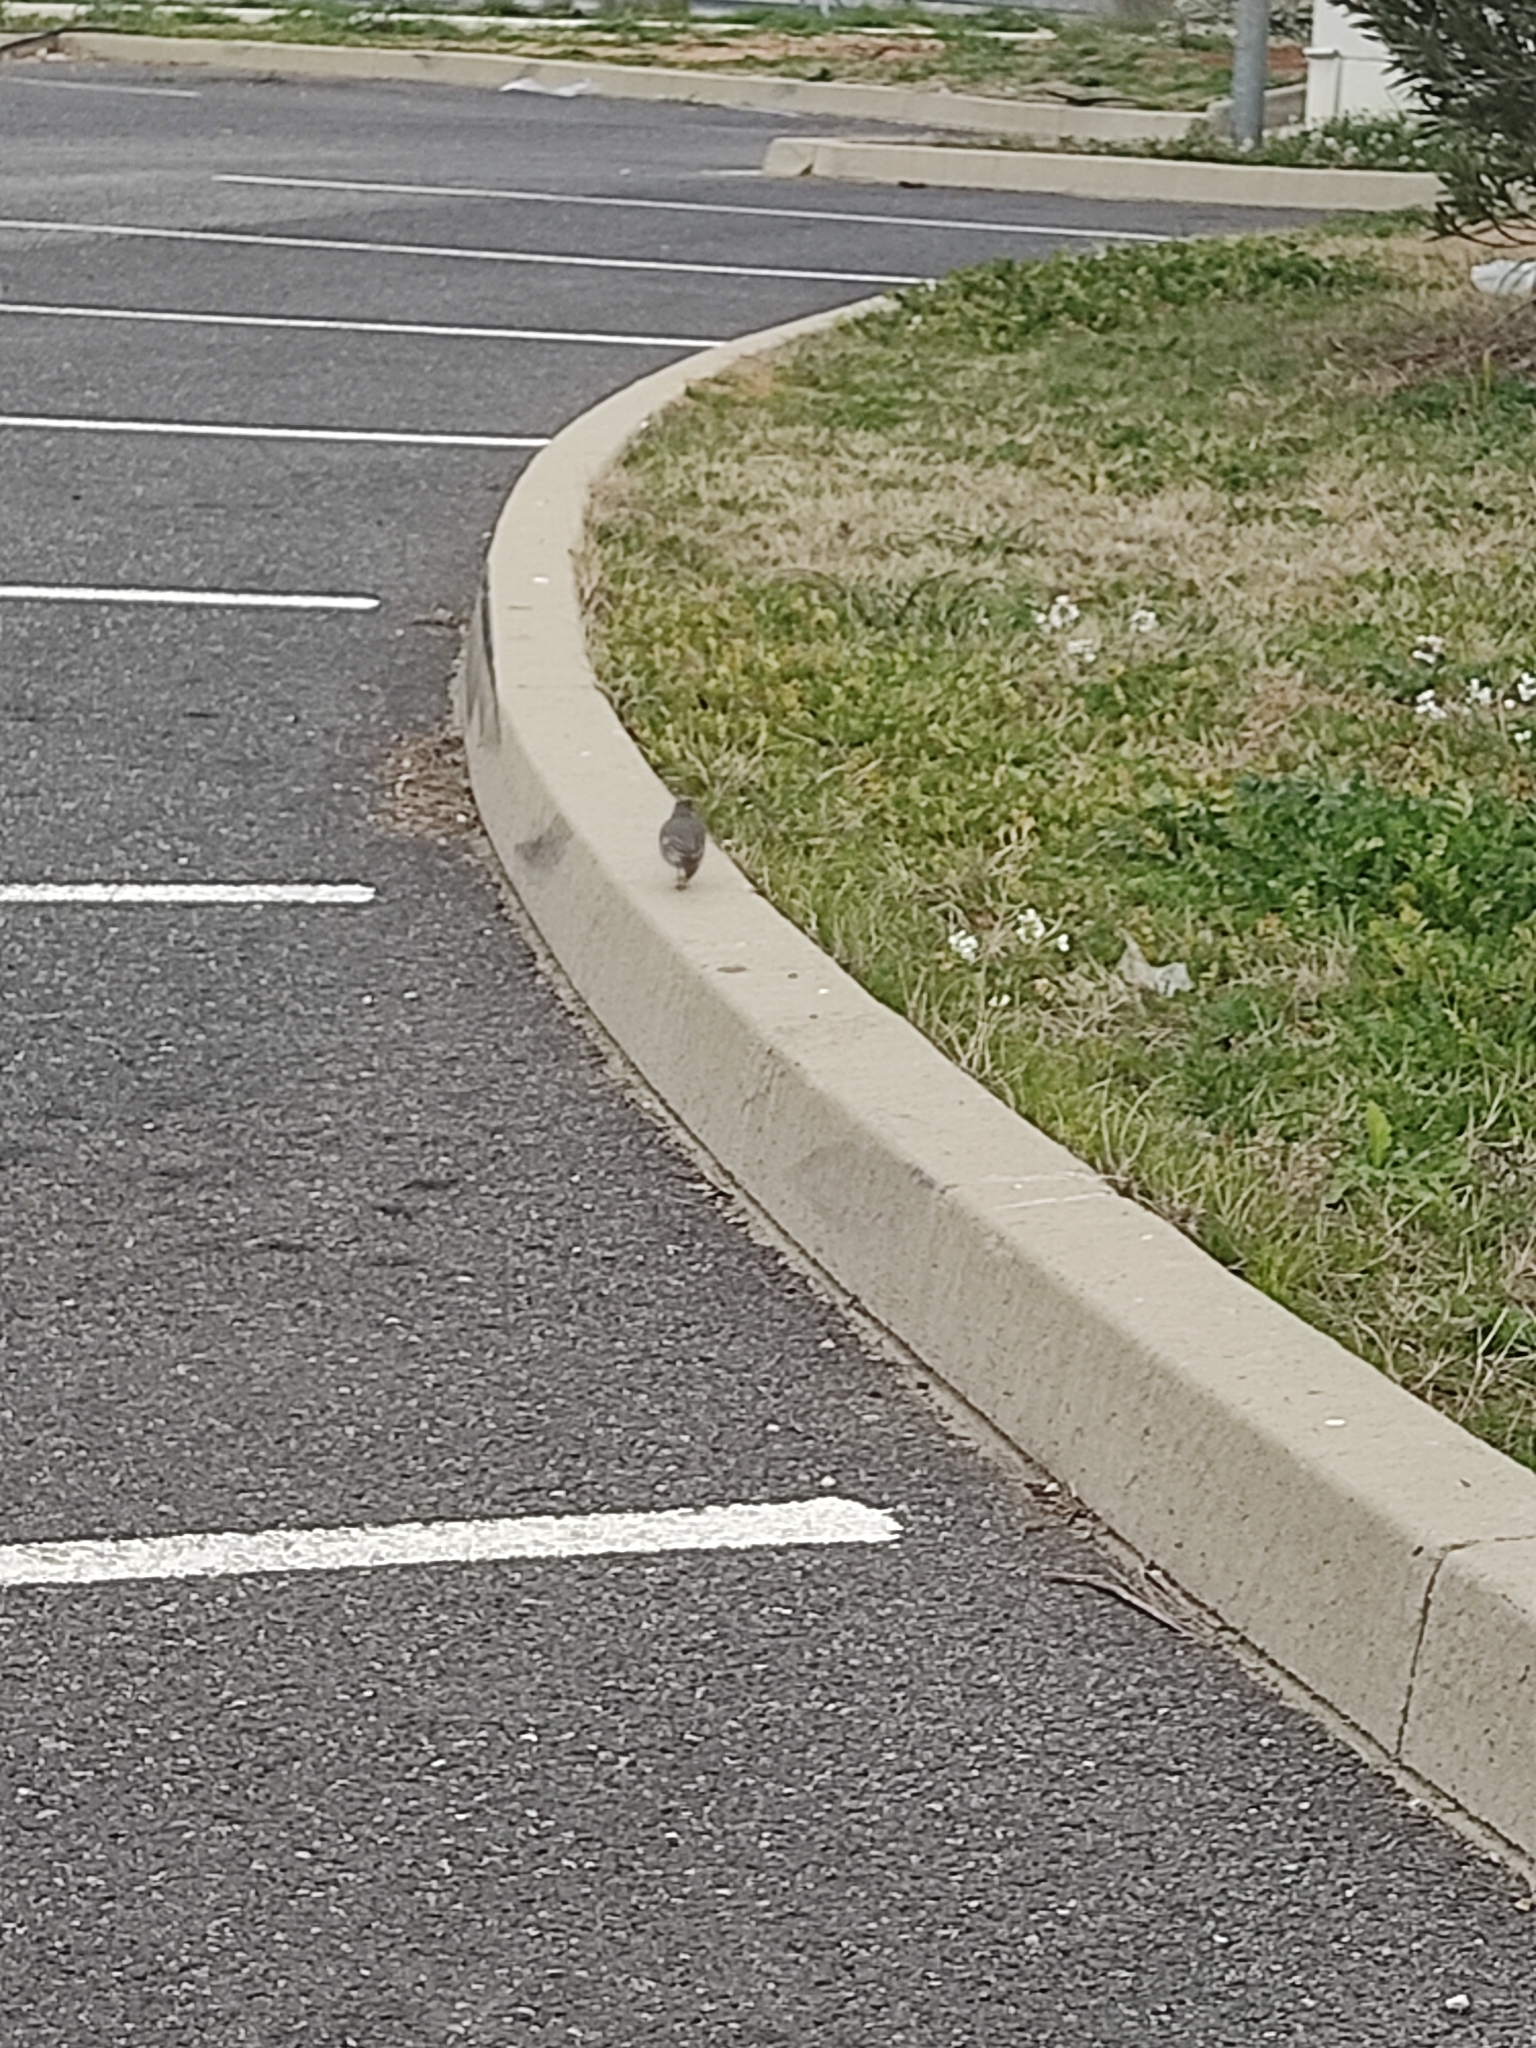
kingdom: Animalia
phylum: Chordata
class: Aves
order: Passeriformes
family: Motacillidae
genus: Motacilla
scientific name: Motacilla alba
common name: White wagtail
